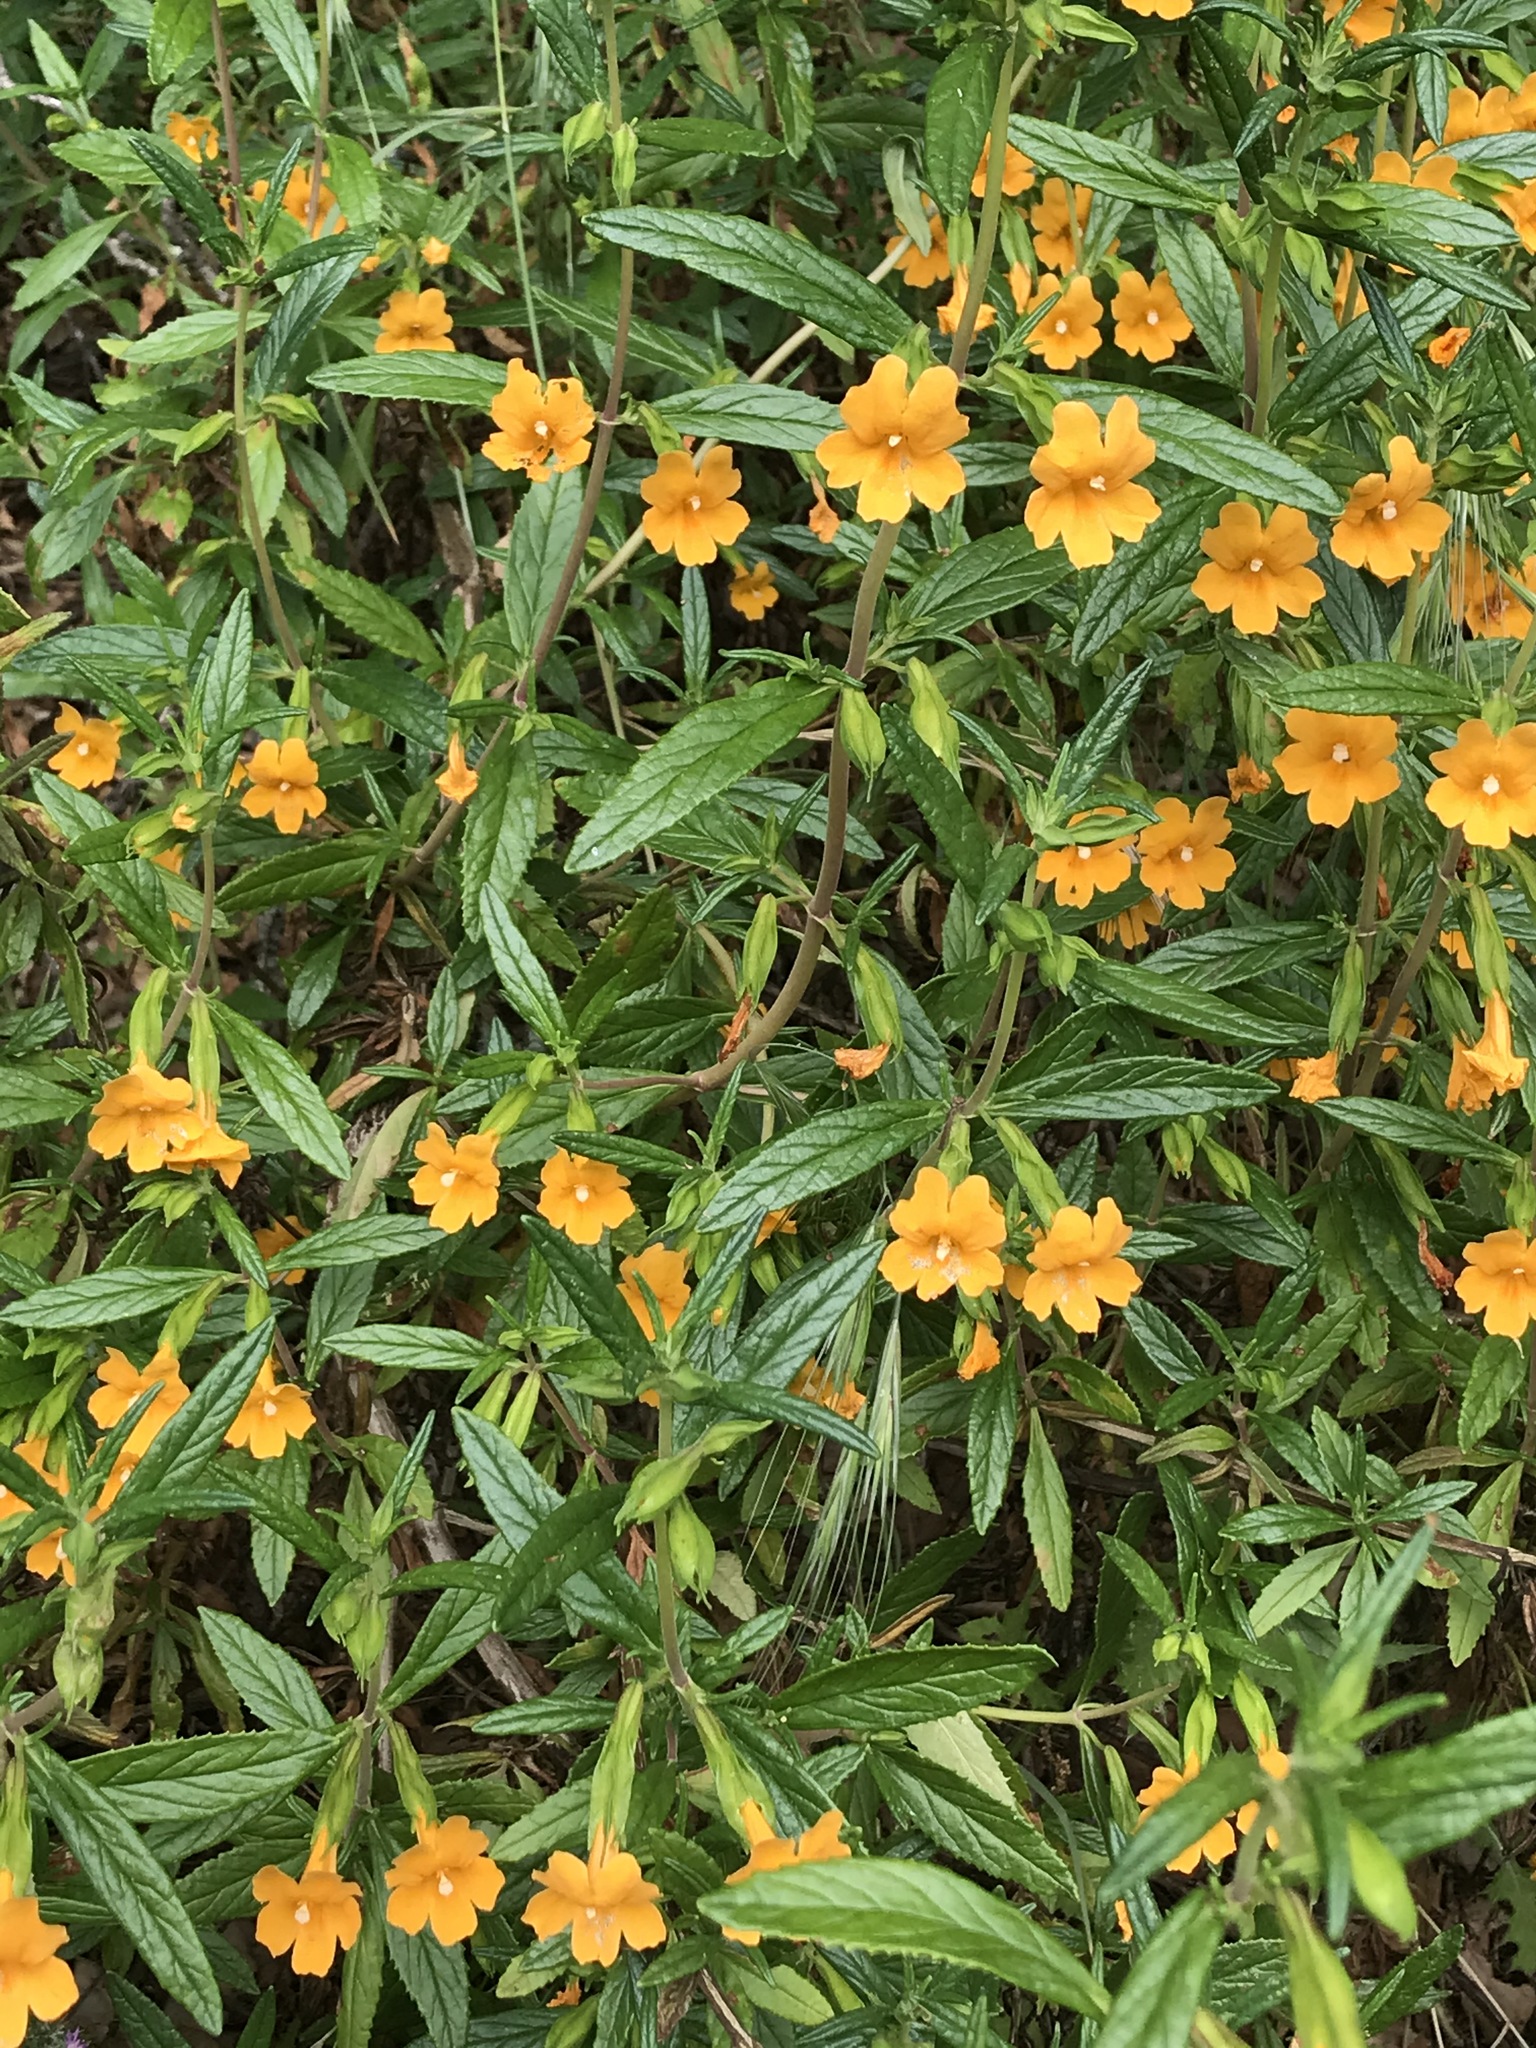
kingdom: Plantae
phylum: Tracheophyta
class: Magnoliopsida
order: Lamiales
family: Phrymaceae
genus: Diplacus
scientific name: Diplacus aurantiacus
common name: Bush monkey-flower
